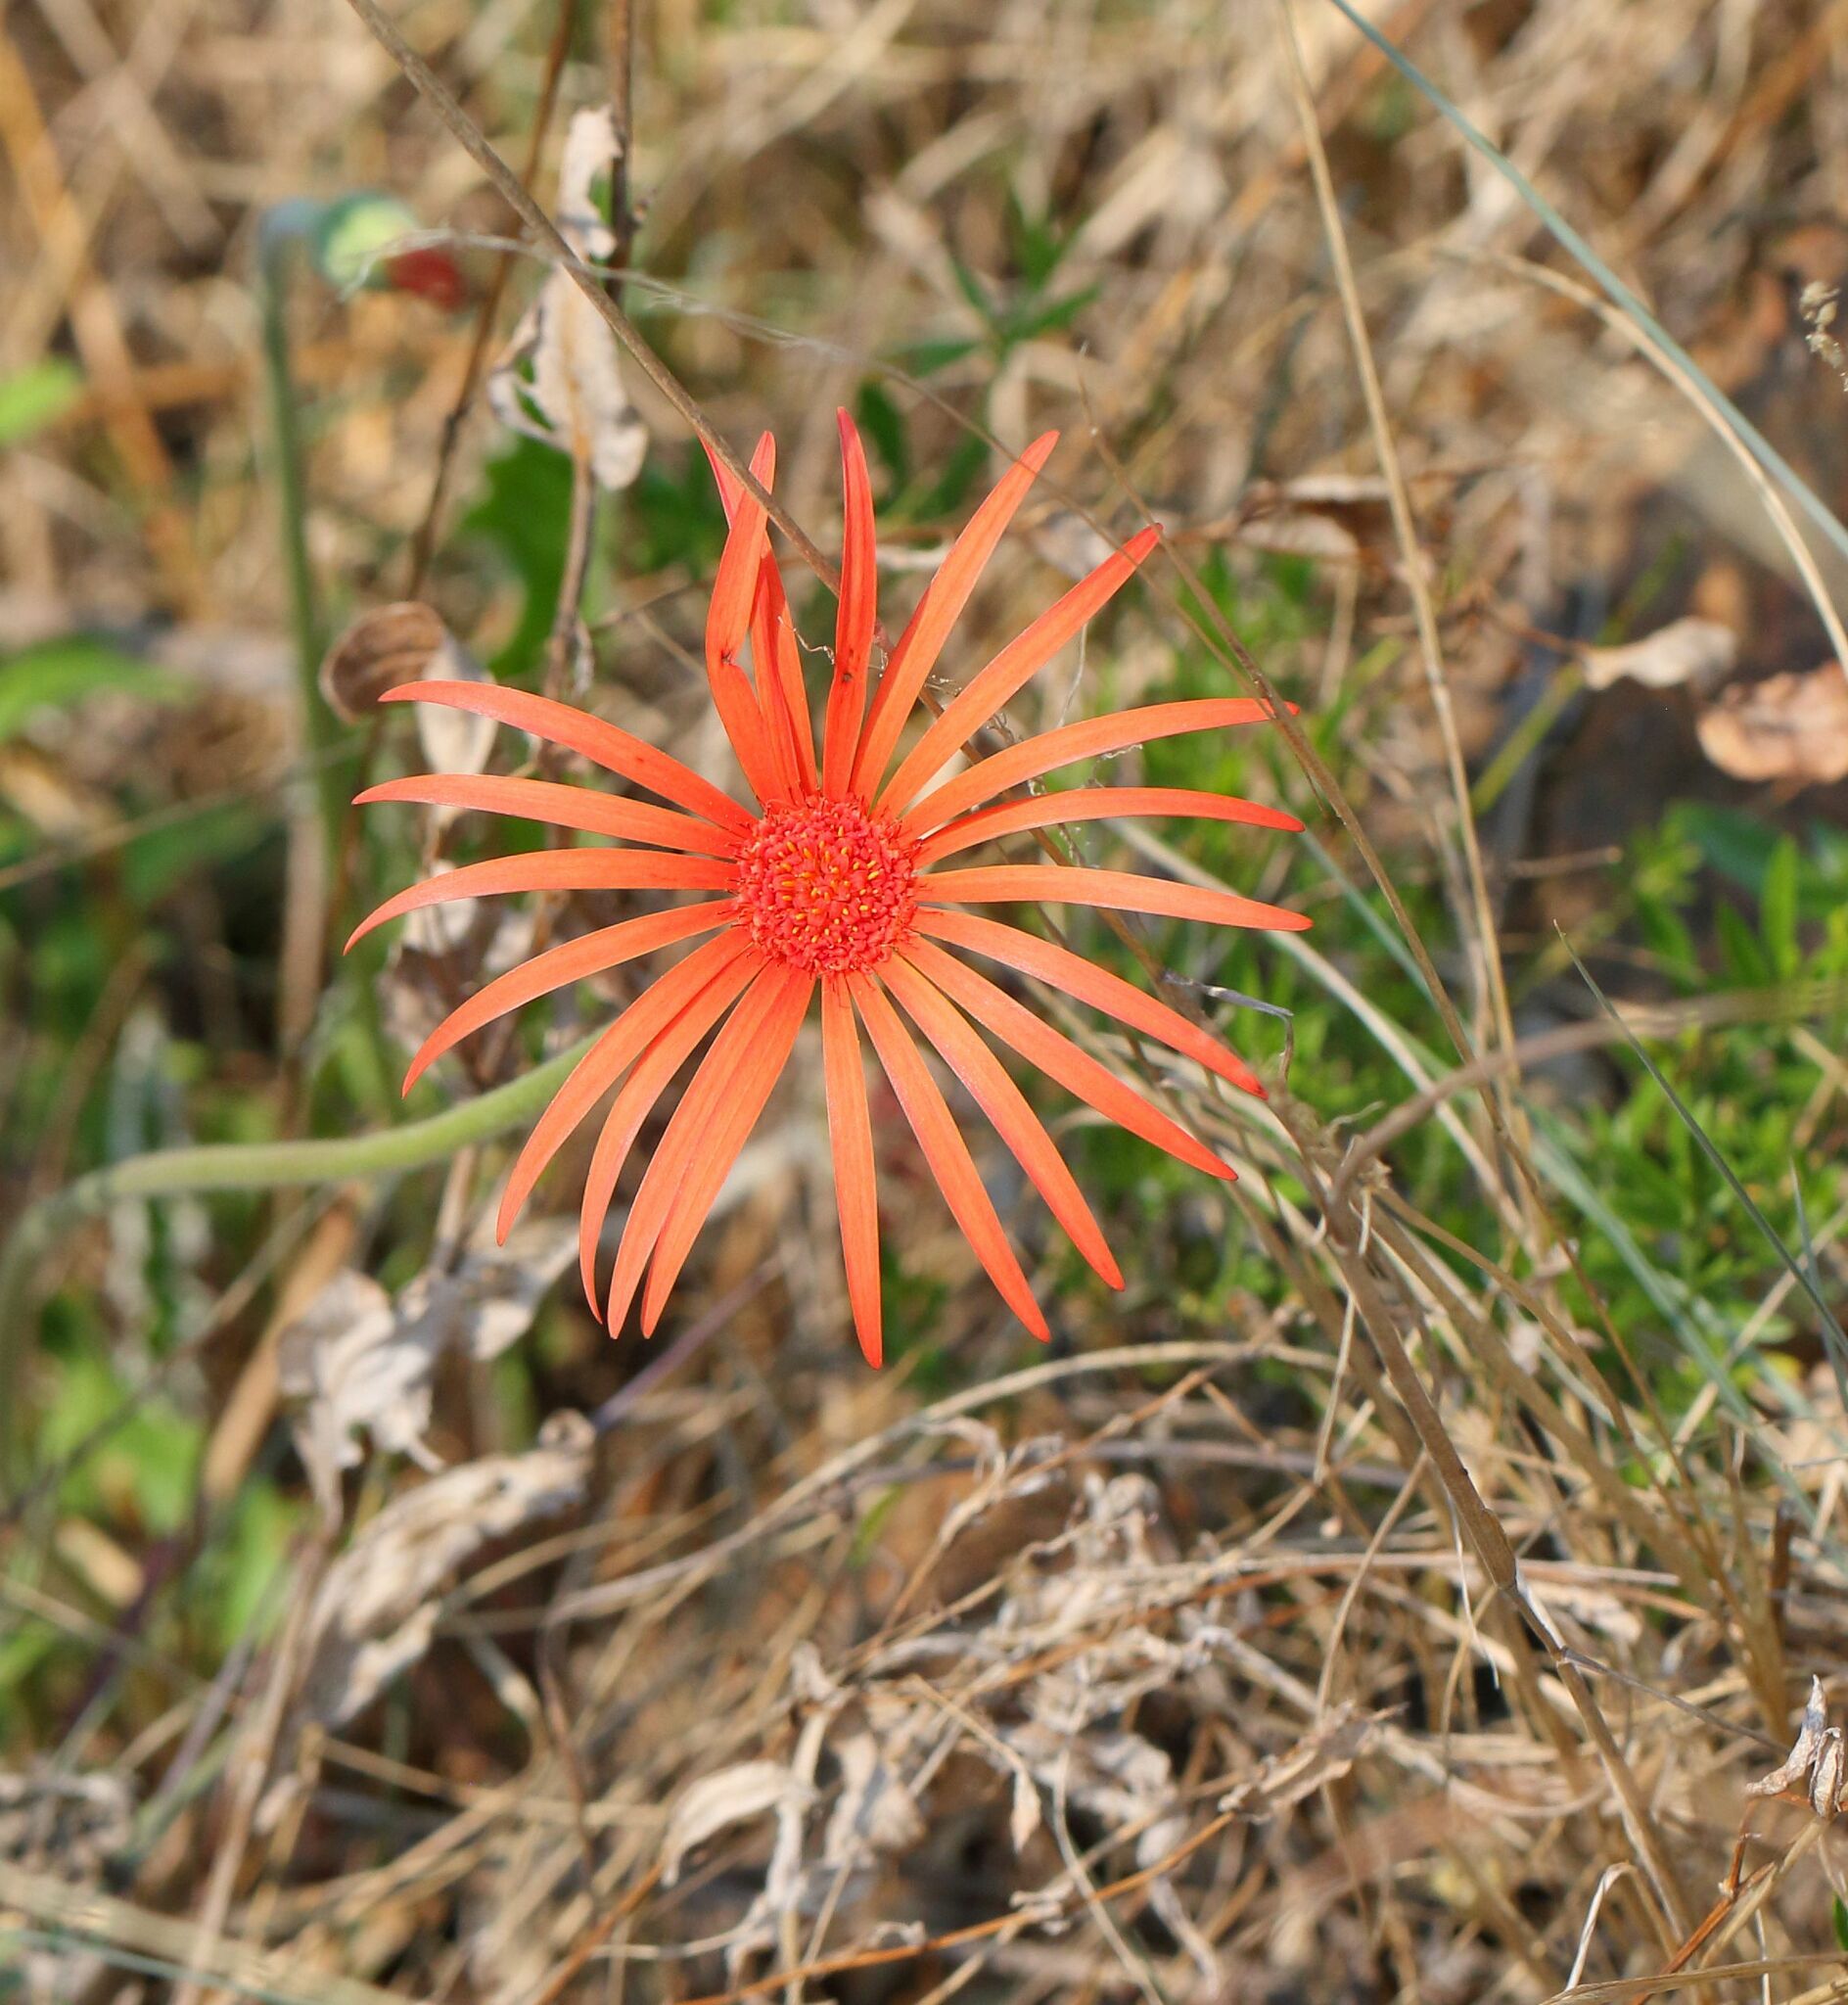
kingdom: Plantae
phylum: Tracheophyta
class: Magnoliopsida
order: Asterales
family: Asteraceae
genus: Gerbera
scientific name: Gerbera jamesonii
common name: African daisy
